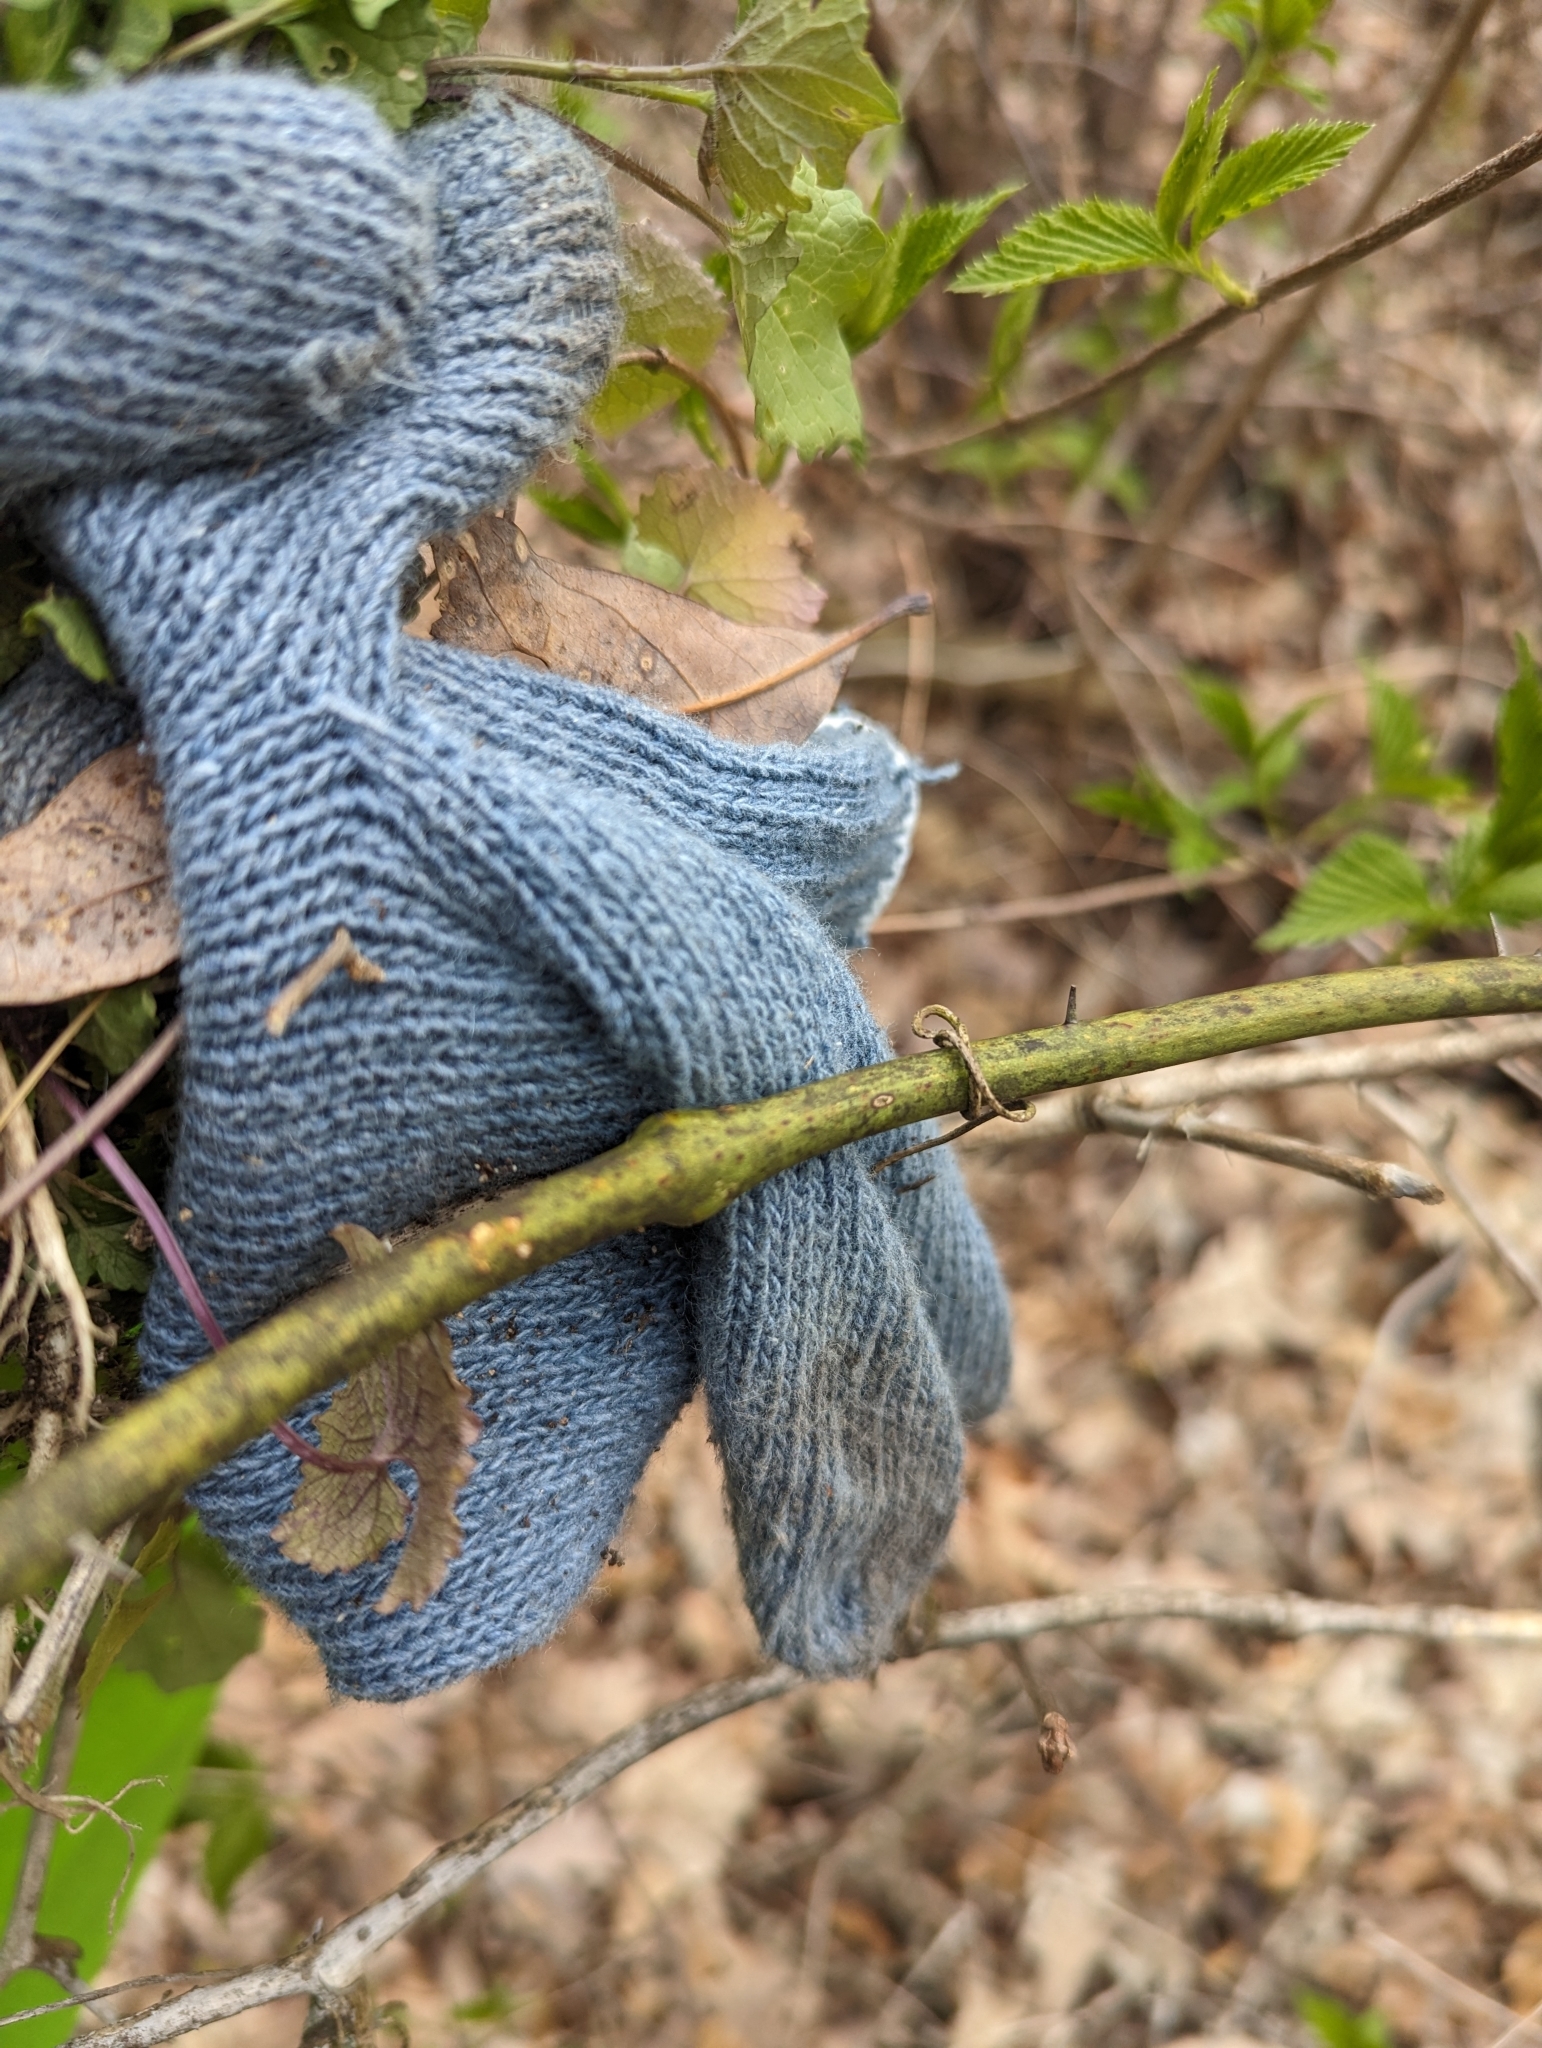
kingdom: Plantae
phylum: Tracheophyta
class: Liliopsida
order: Liliales
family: Smilacaceae
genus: Smilax
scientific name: Smilax tamnoides
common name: Hellfetter
